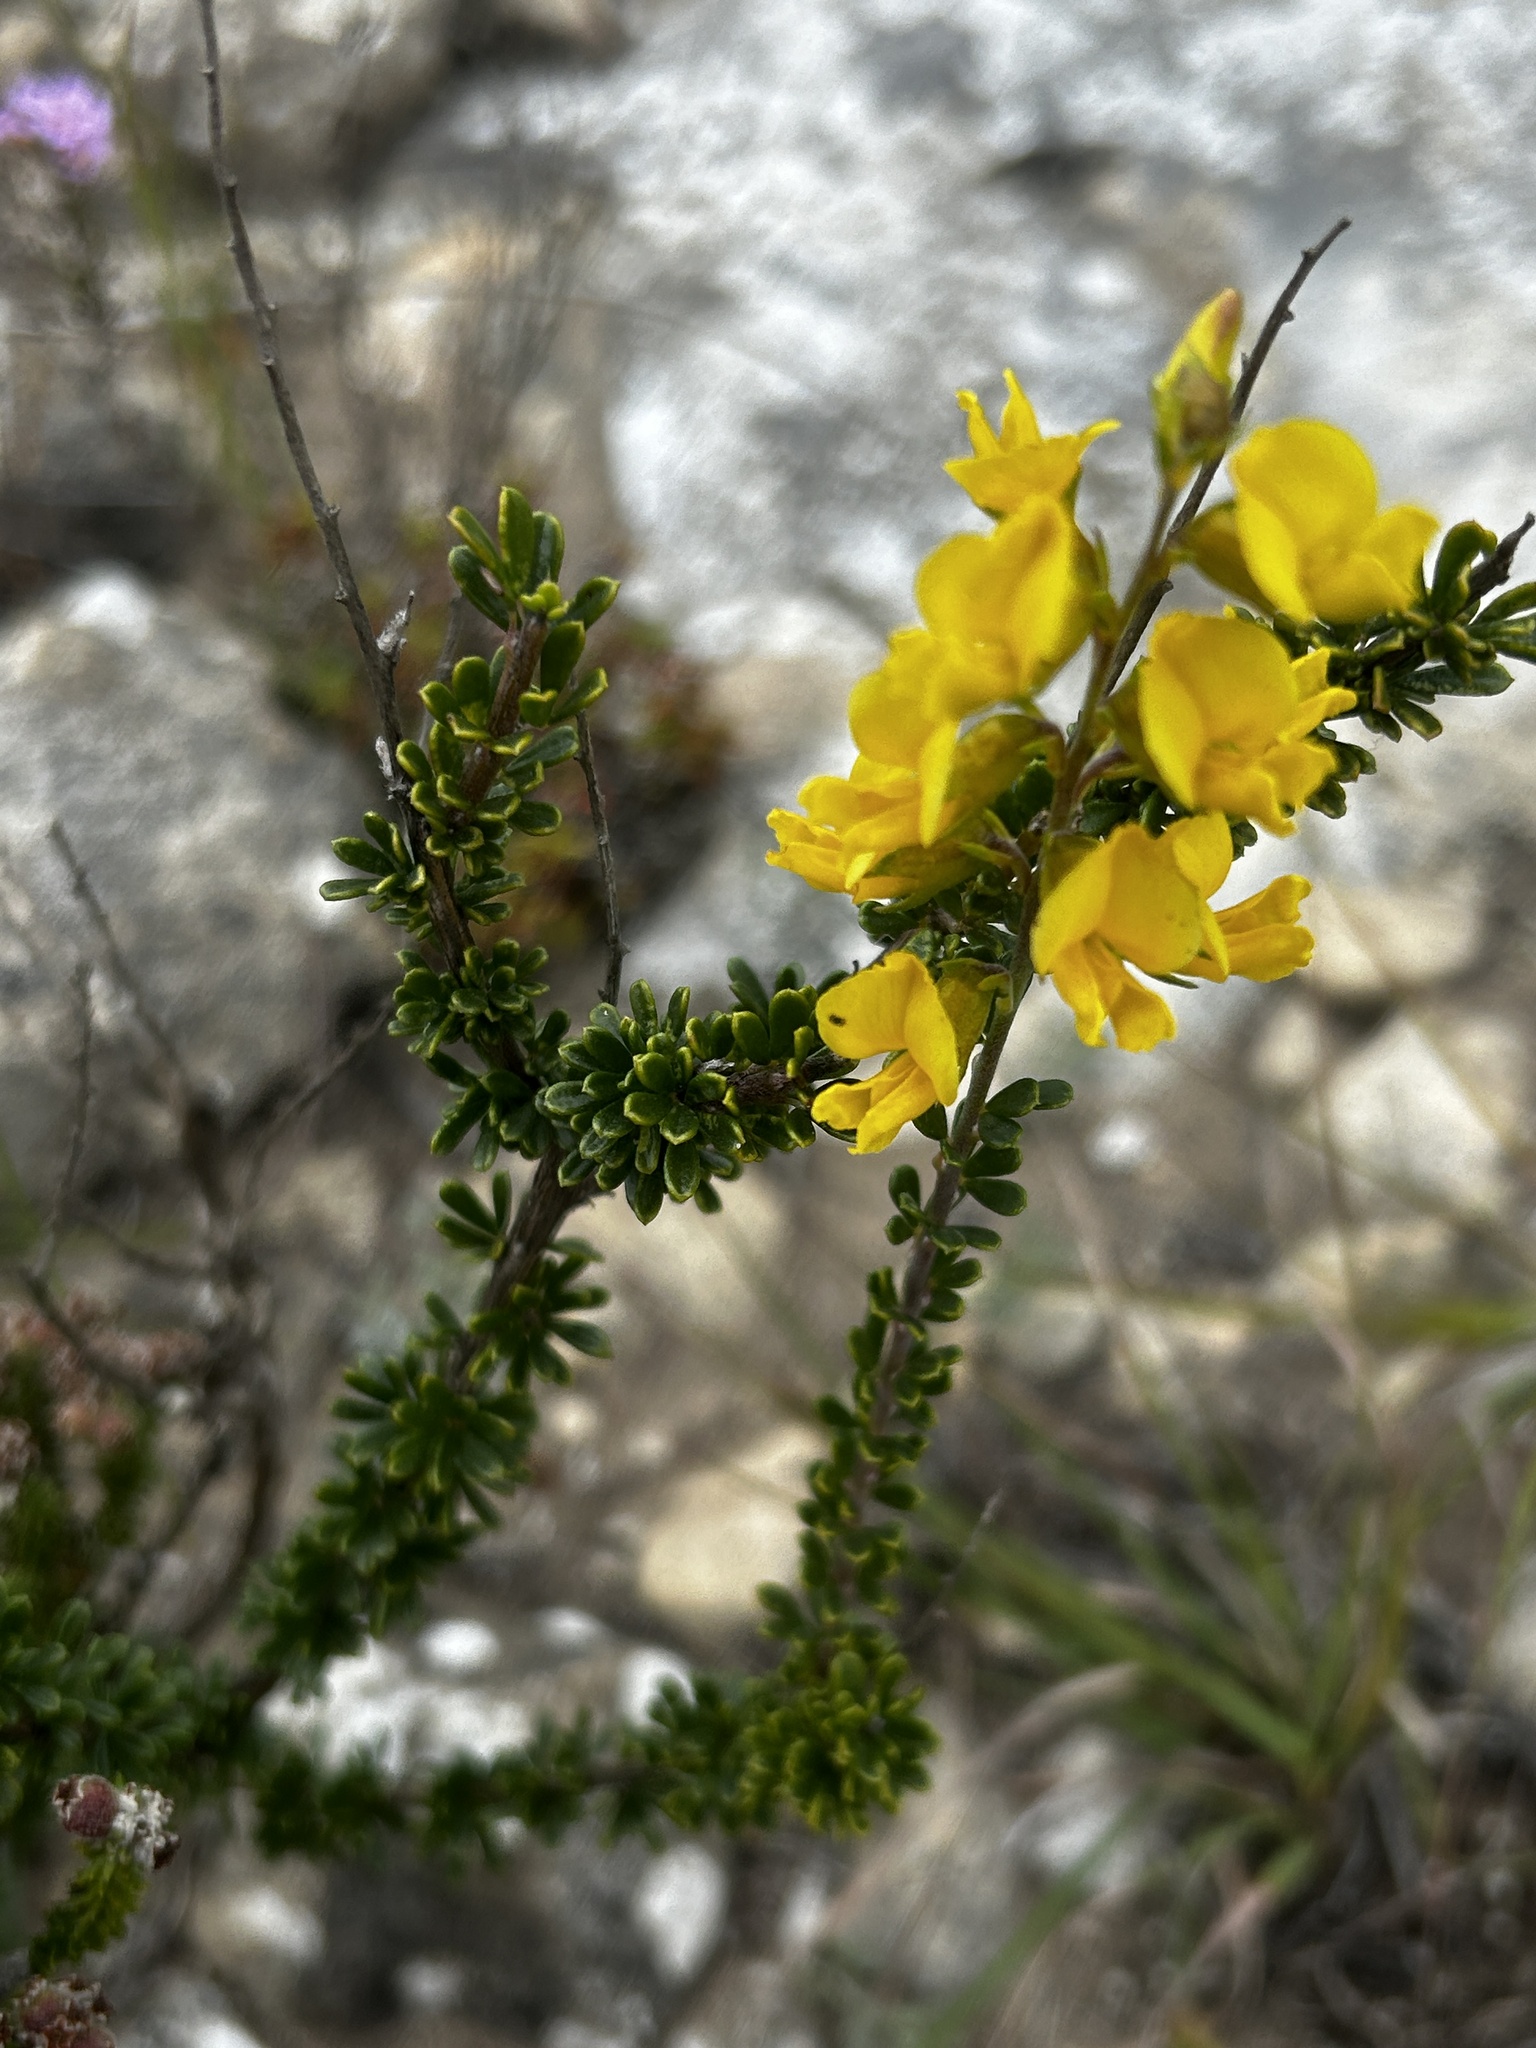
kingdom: Plantae
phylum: Tracheophyta
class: Magnoliopsida
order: Fabales
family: Fabaceae
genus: Wiborgiella
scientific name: Wiborgiella sessilifolia
